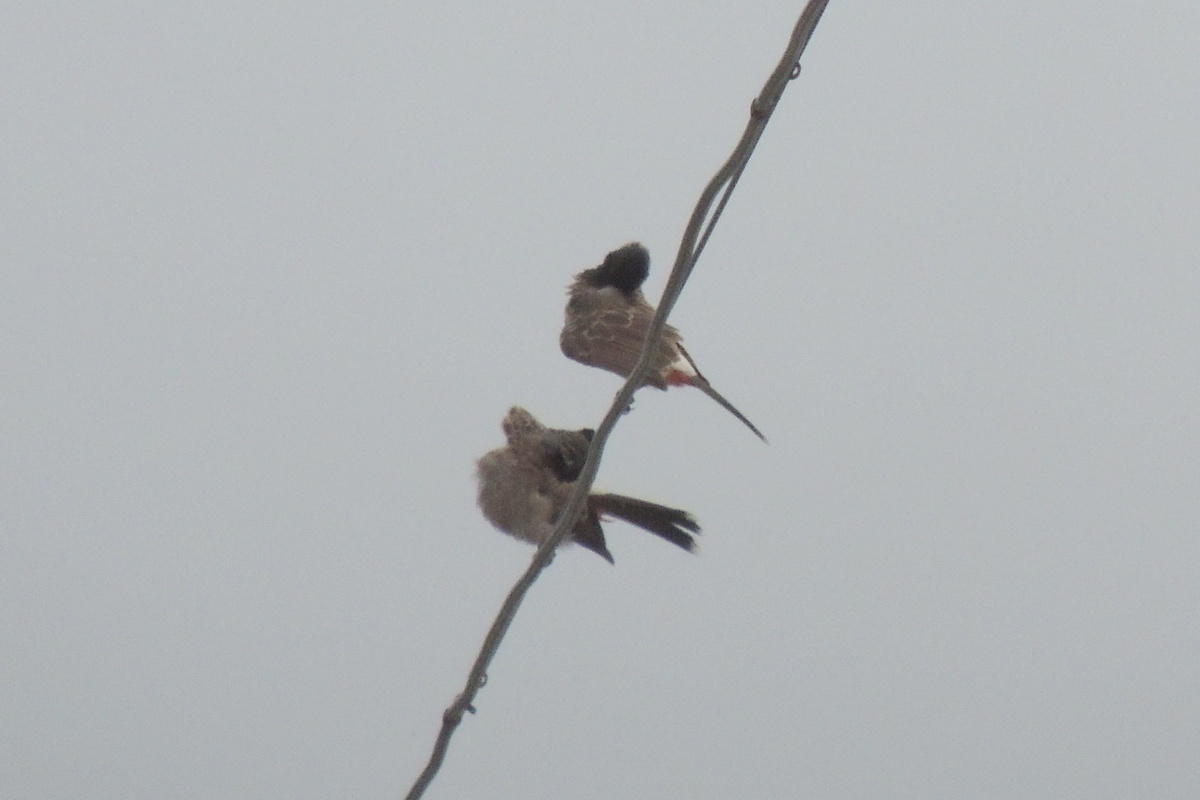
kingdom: Animalia
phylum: Chordata
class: Aves
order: Passeriformes
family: Pycnonotidae
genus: Pycnonotus
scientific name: Pycnonotus cafer
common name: Red-vented bulbul
